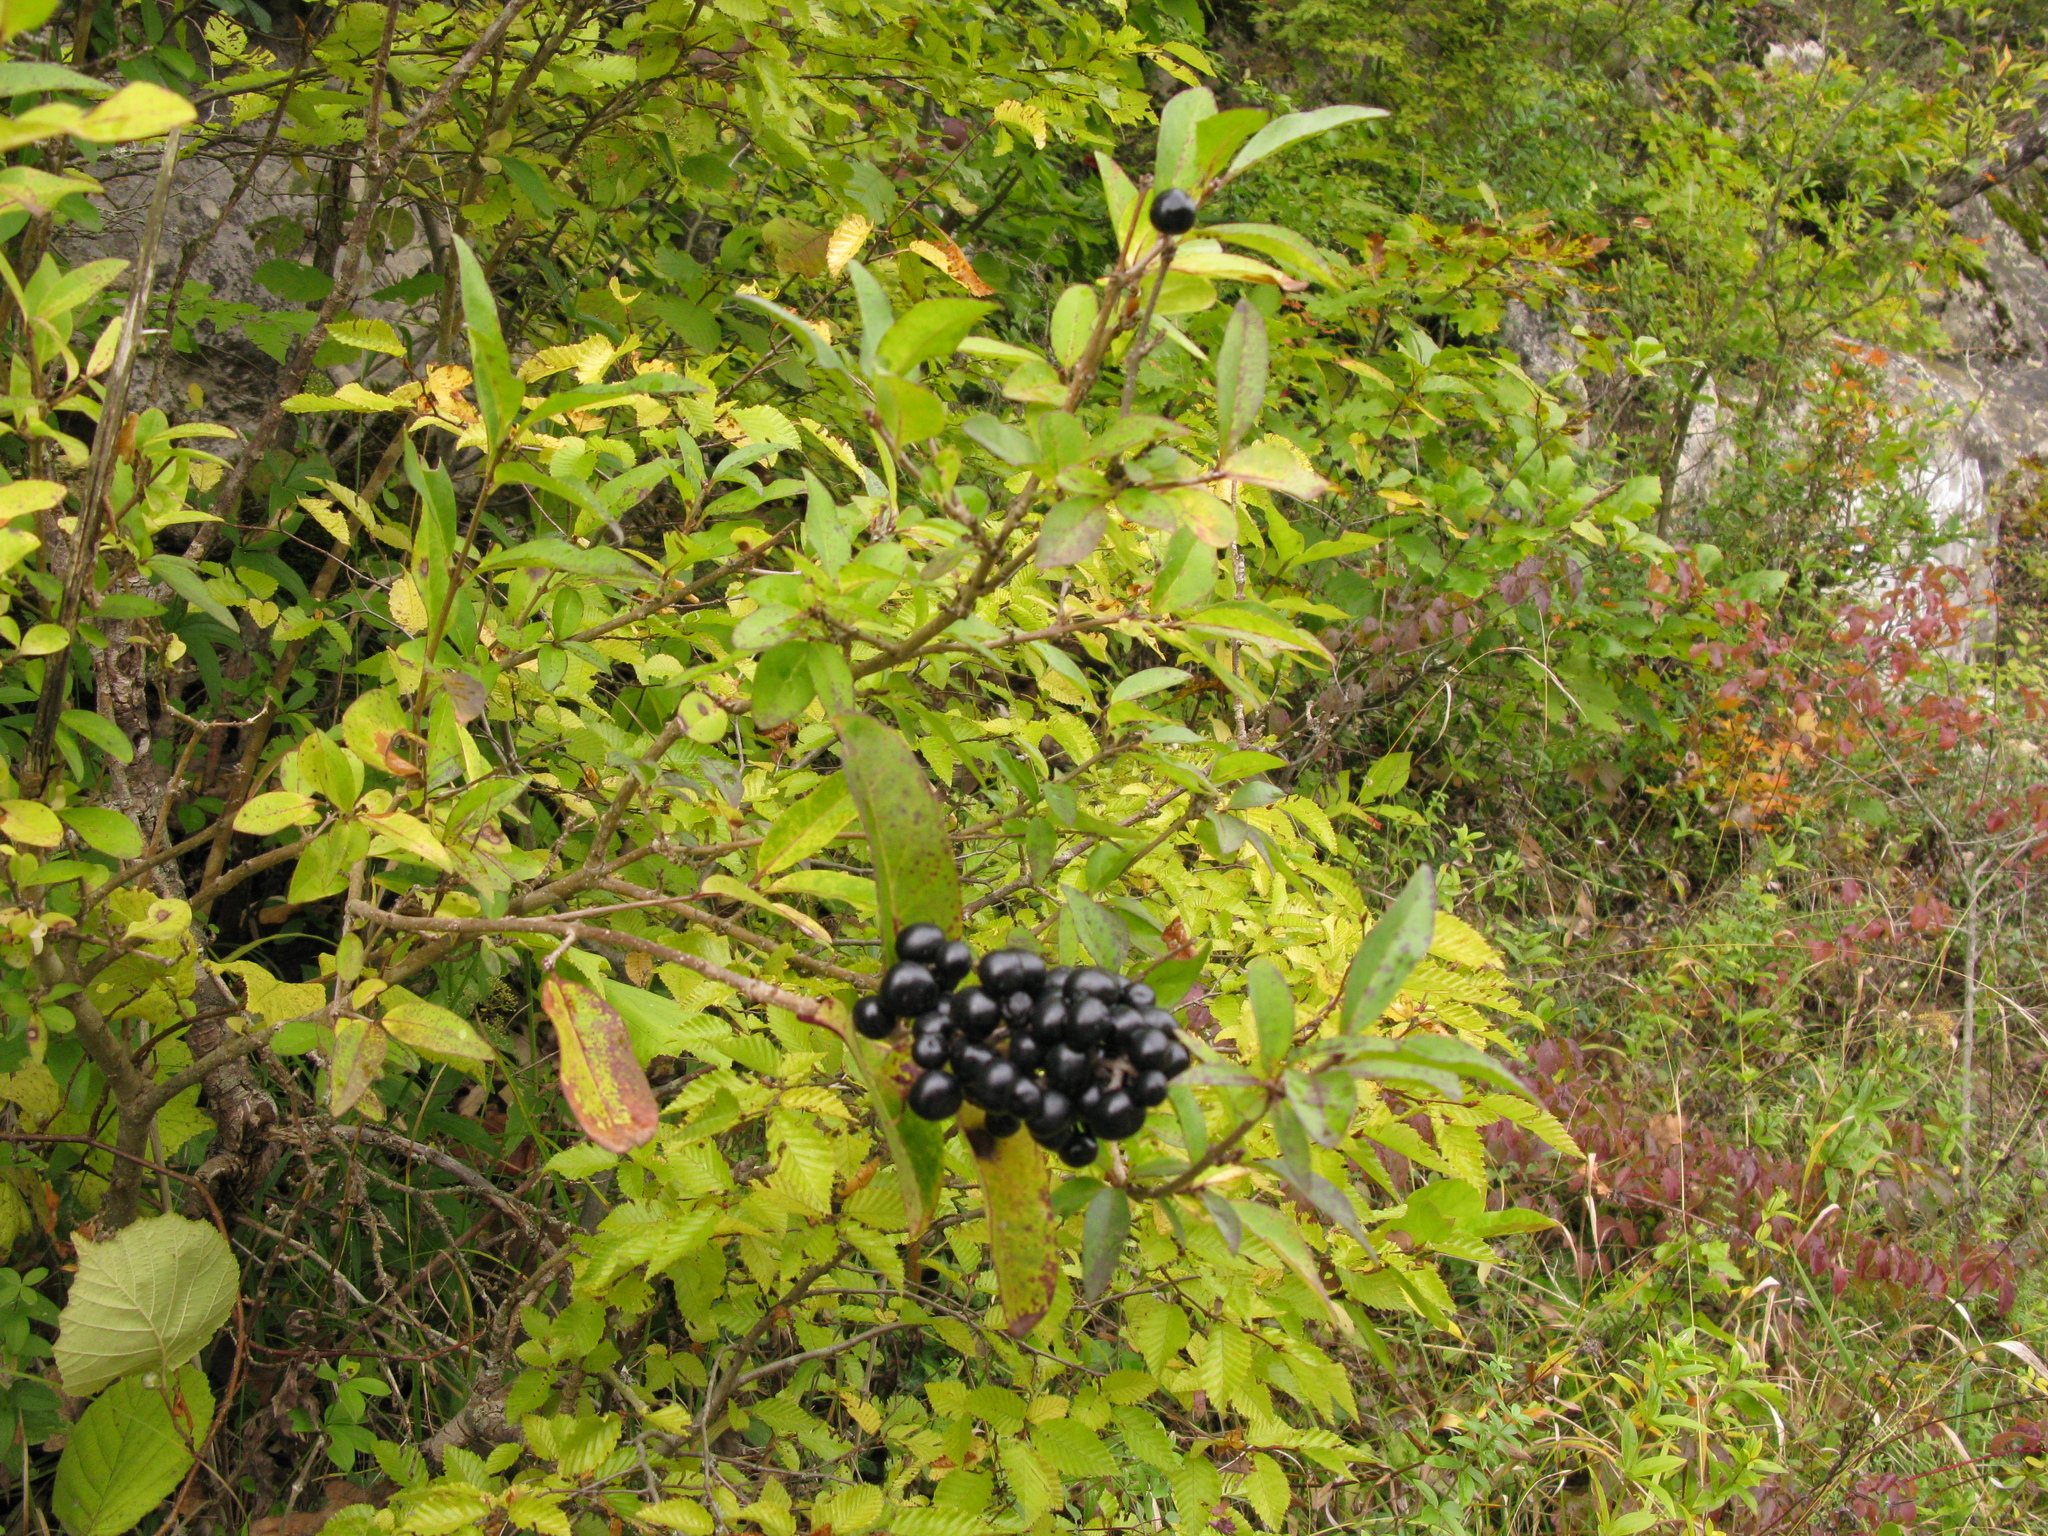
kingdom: Plantae
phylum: Tracheophyta
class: Magnoliopsida
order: Lamiales
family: Oleaceae
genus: Ligustrum
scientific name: Ligustrum vulgare
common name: Wild privet
